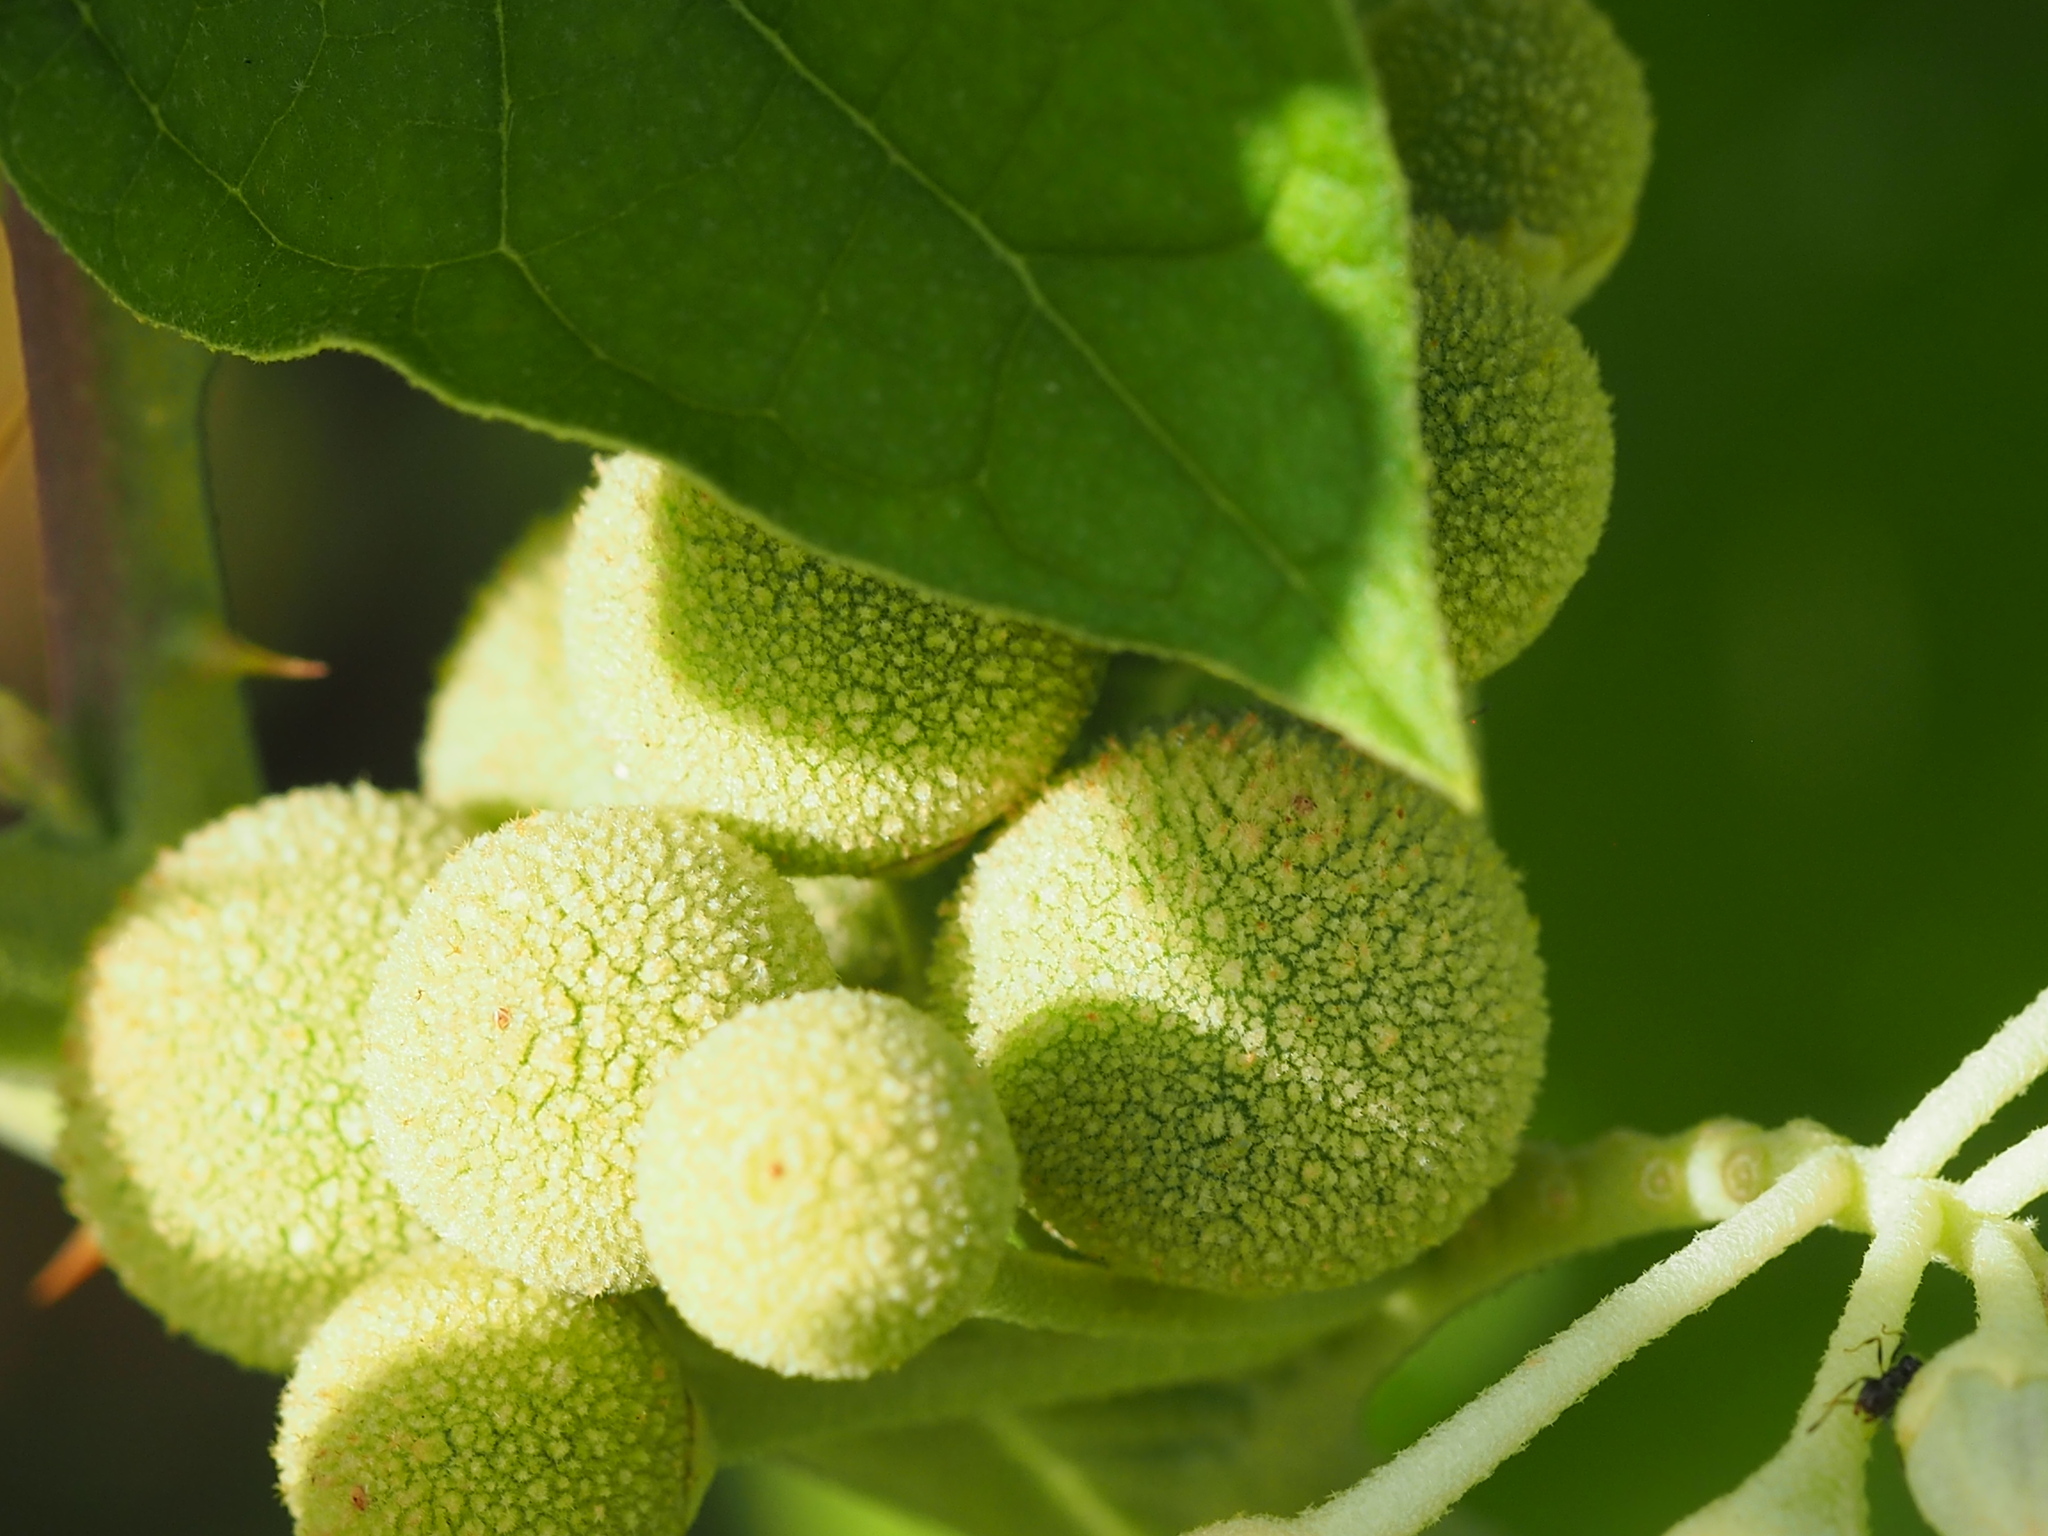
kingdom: Plantae
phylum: Tracheophyta
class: Magnoliopsida
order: Solanales
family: Solanaceae
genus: Solanum
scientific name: Solanum
